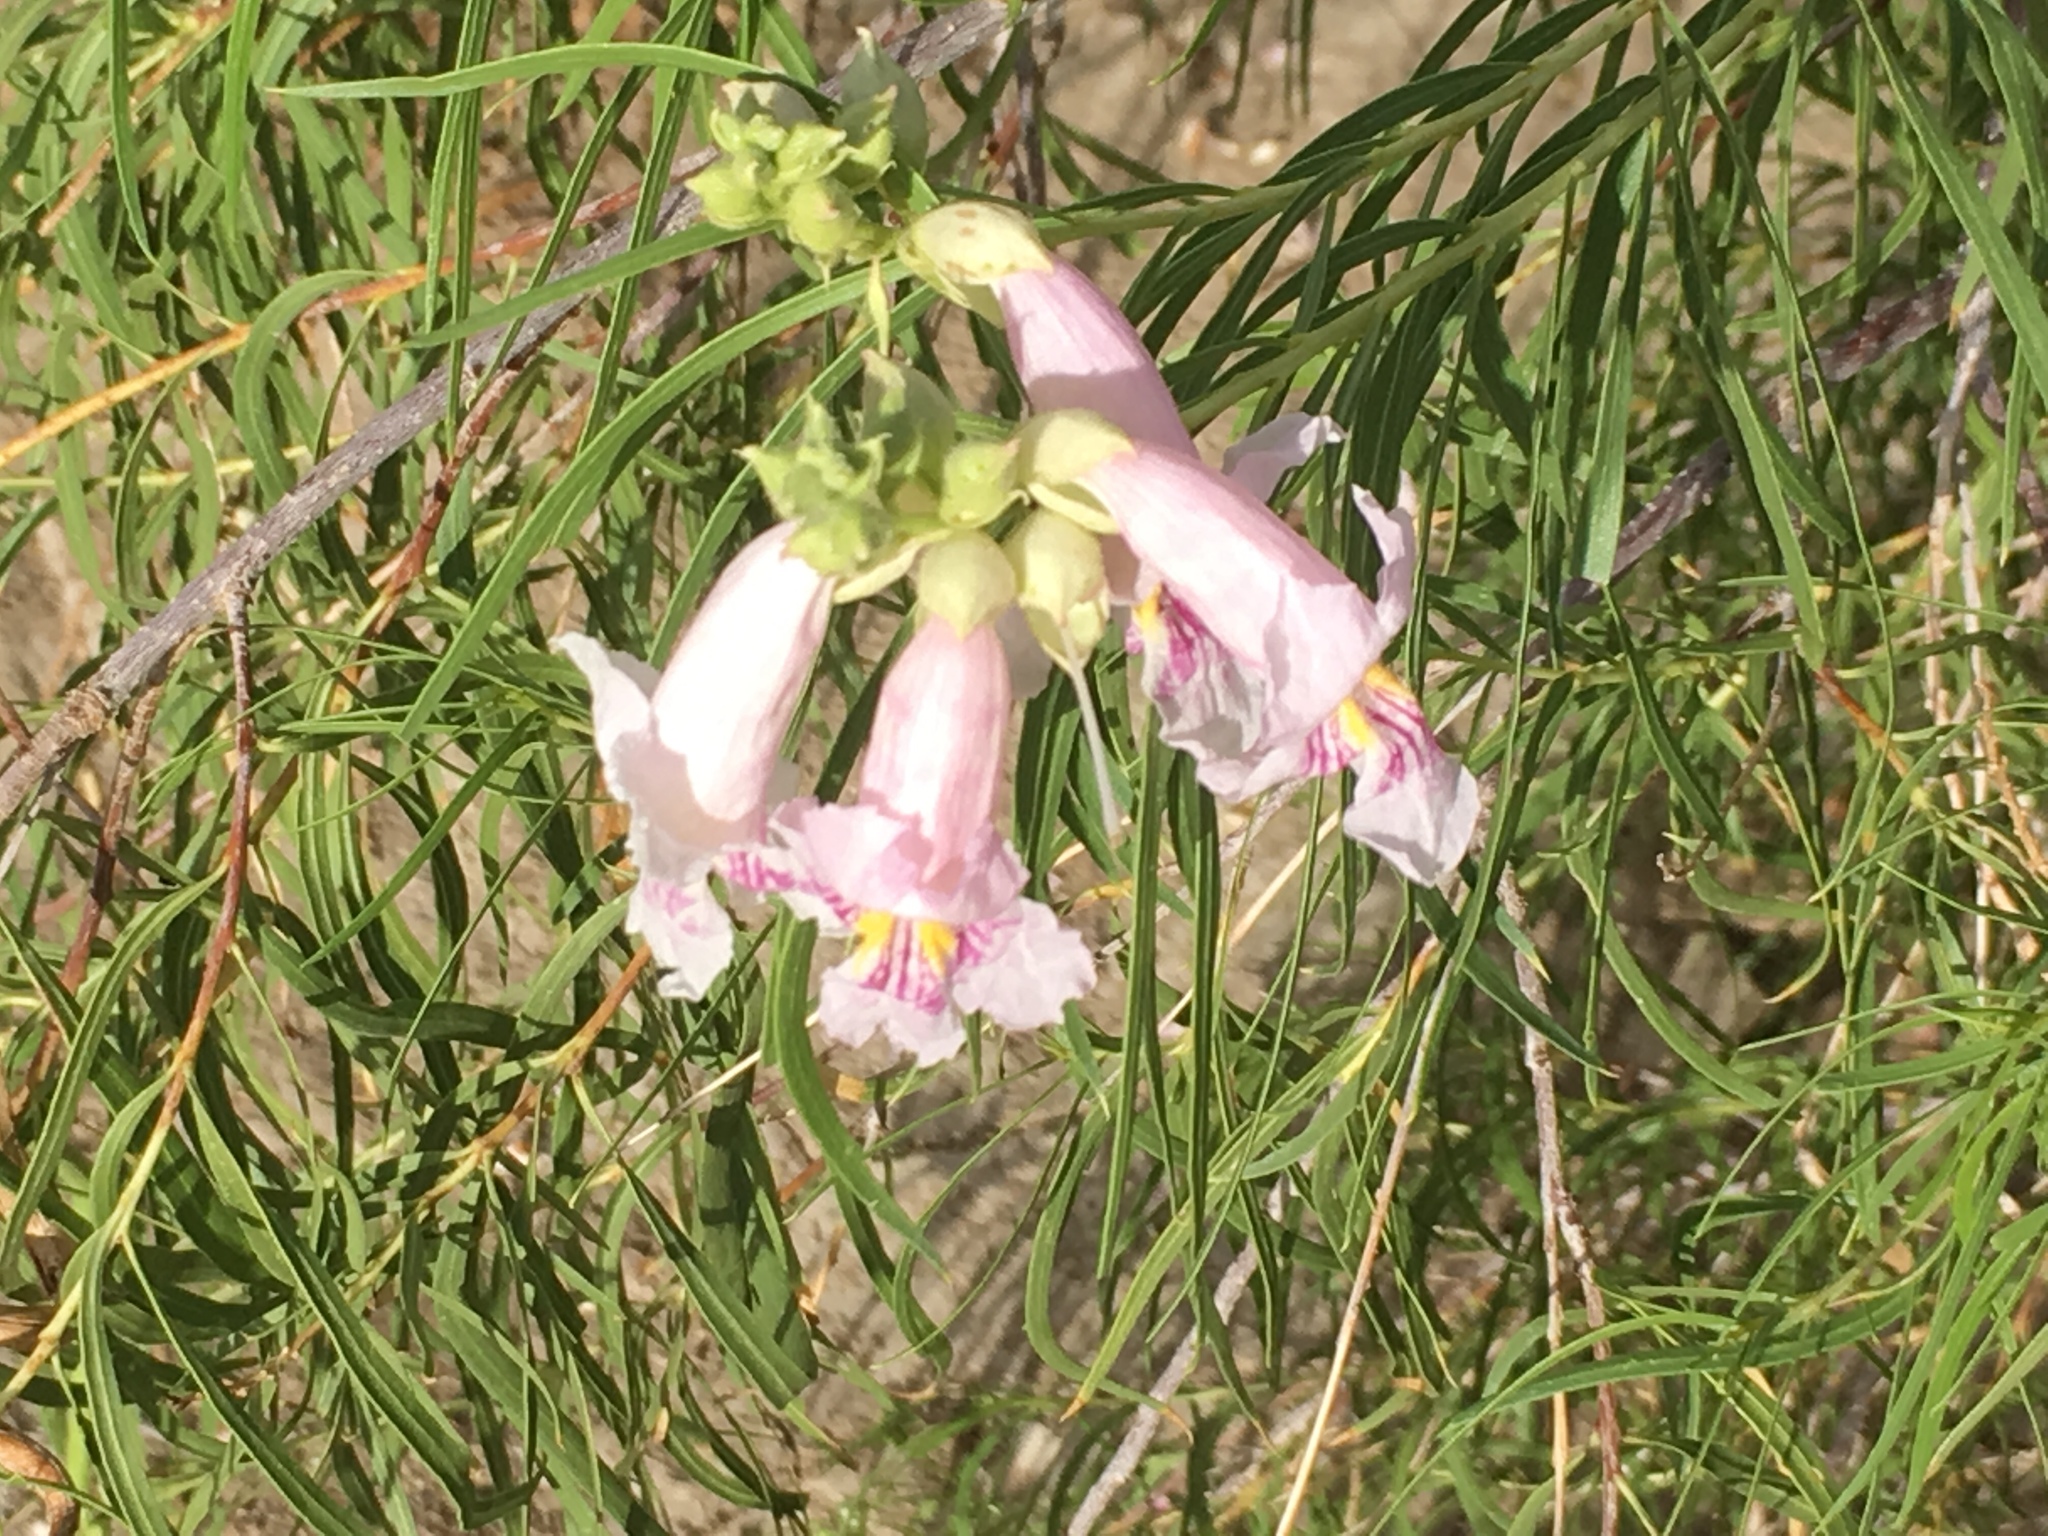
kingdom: Plantae
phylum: Tracheophyta
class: Magnoliopsida
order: Lamiales
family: Bignoniaceae
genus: Chilopsis
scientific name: Chilopsis linearis
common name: Desert-willow
